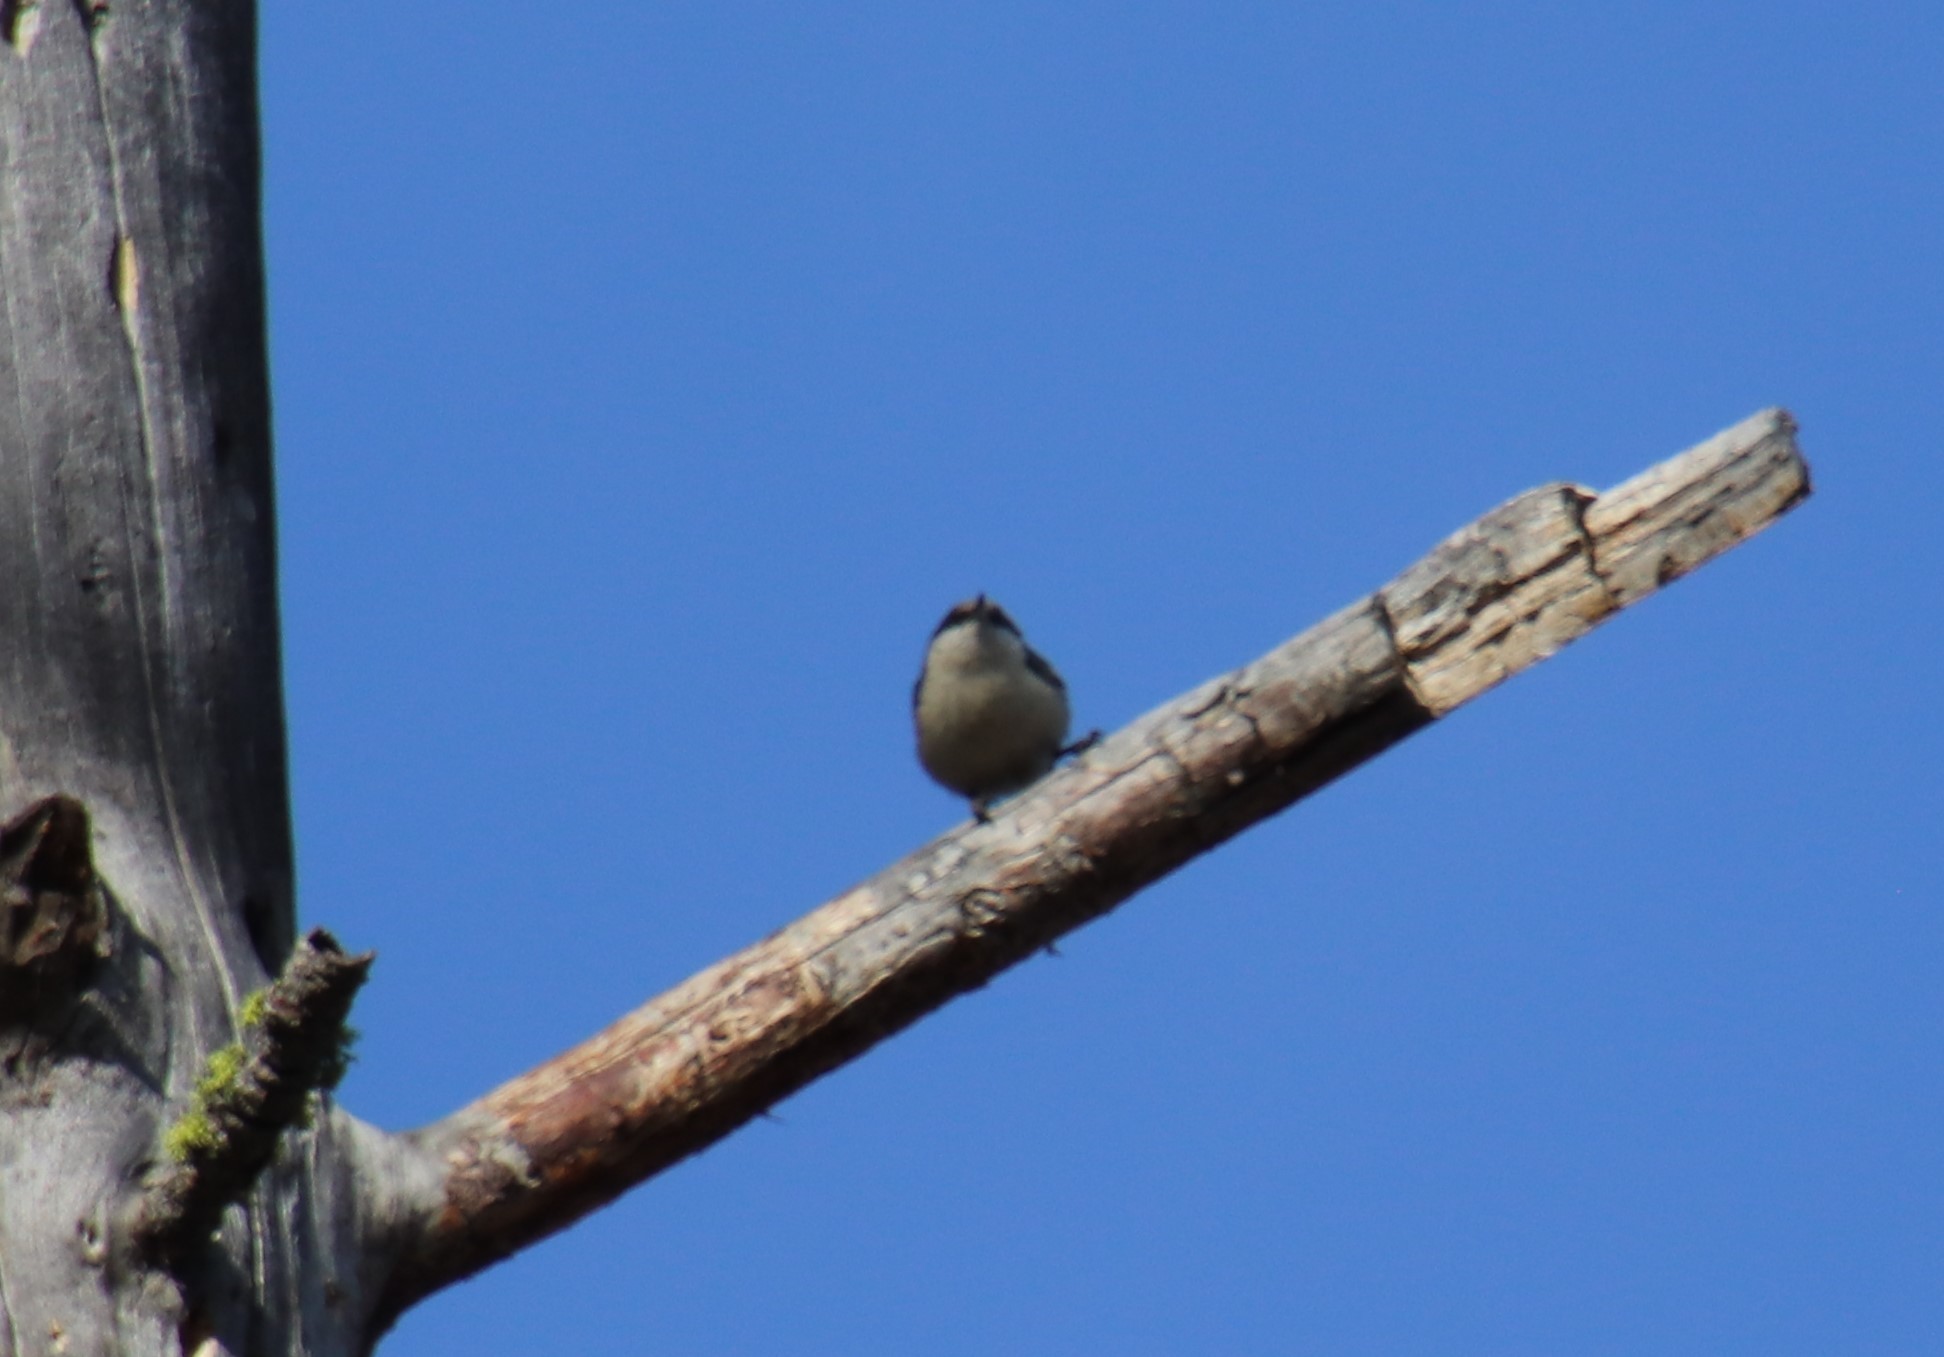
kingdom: Animalia
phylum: Chordata
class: Aves
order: Passeriformes
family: Sittidae
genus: Sitta
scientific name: Sitta pygmaea
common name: Pygmy nuthatch
